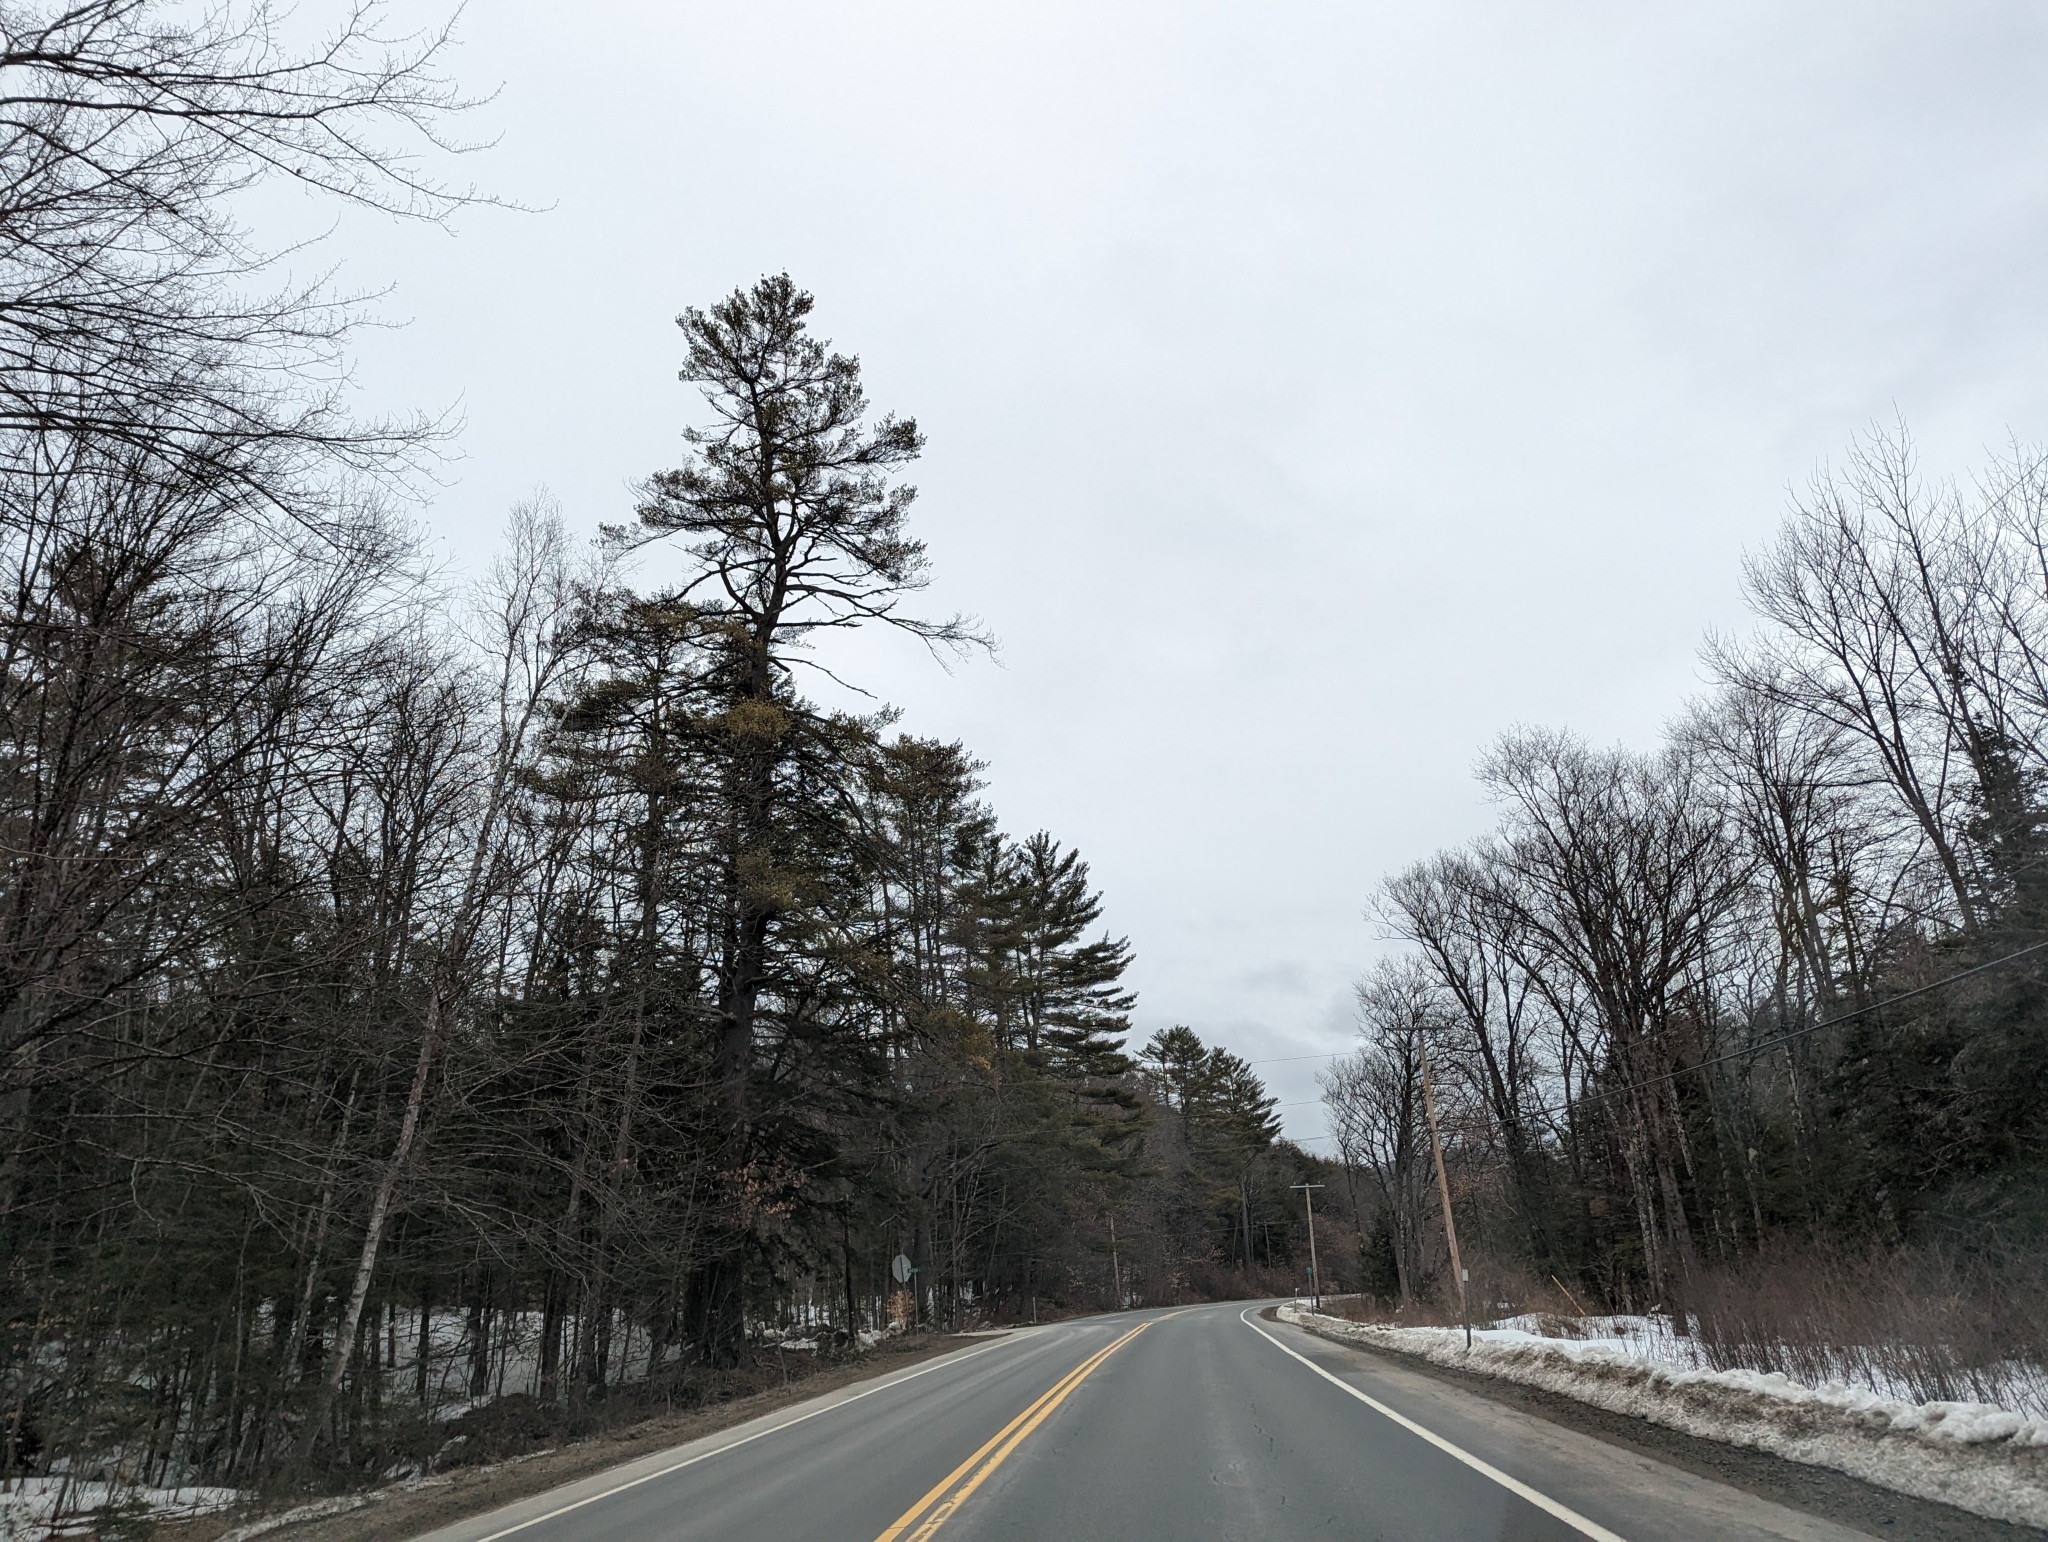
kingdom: Plantae
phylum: Tracheophyta
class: Pinopsida
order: Pinales
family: Pinaceae
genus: Pinus
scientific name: Pinus strobus
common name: Weymouth pine
